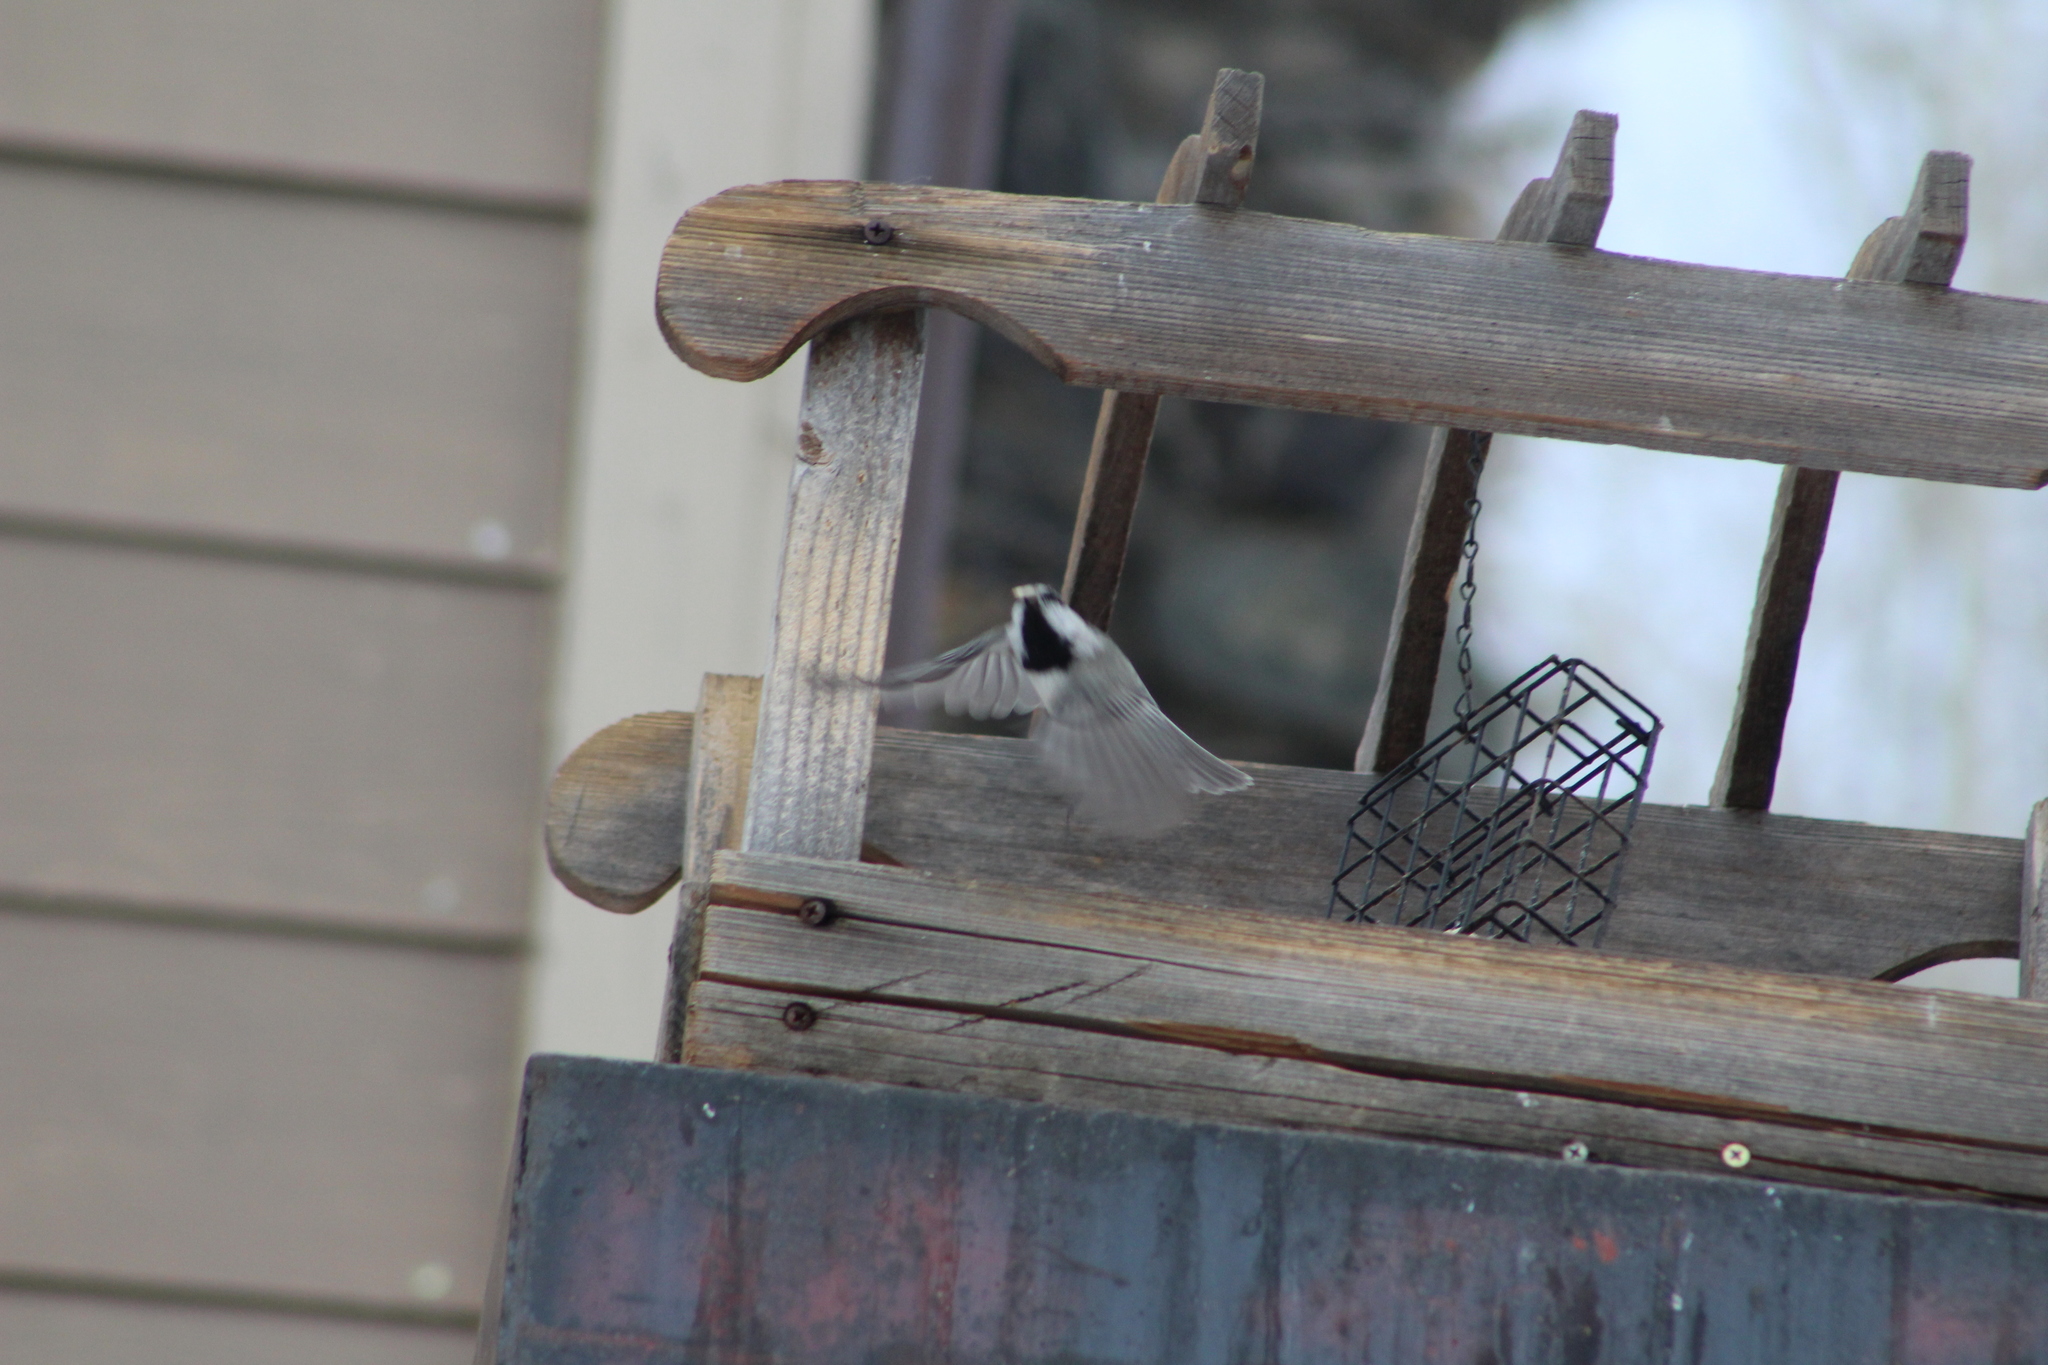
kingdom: Animalia
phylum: Chordata
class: Aves
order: Passeriformes
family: Paridae
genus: Poecile
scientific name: Poecile gambeli
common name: Mountain chickadee
